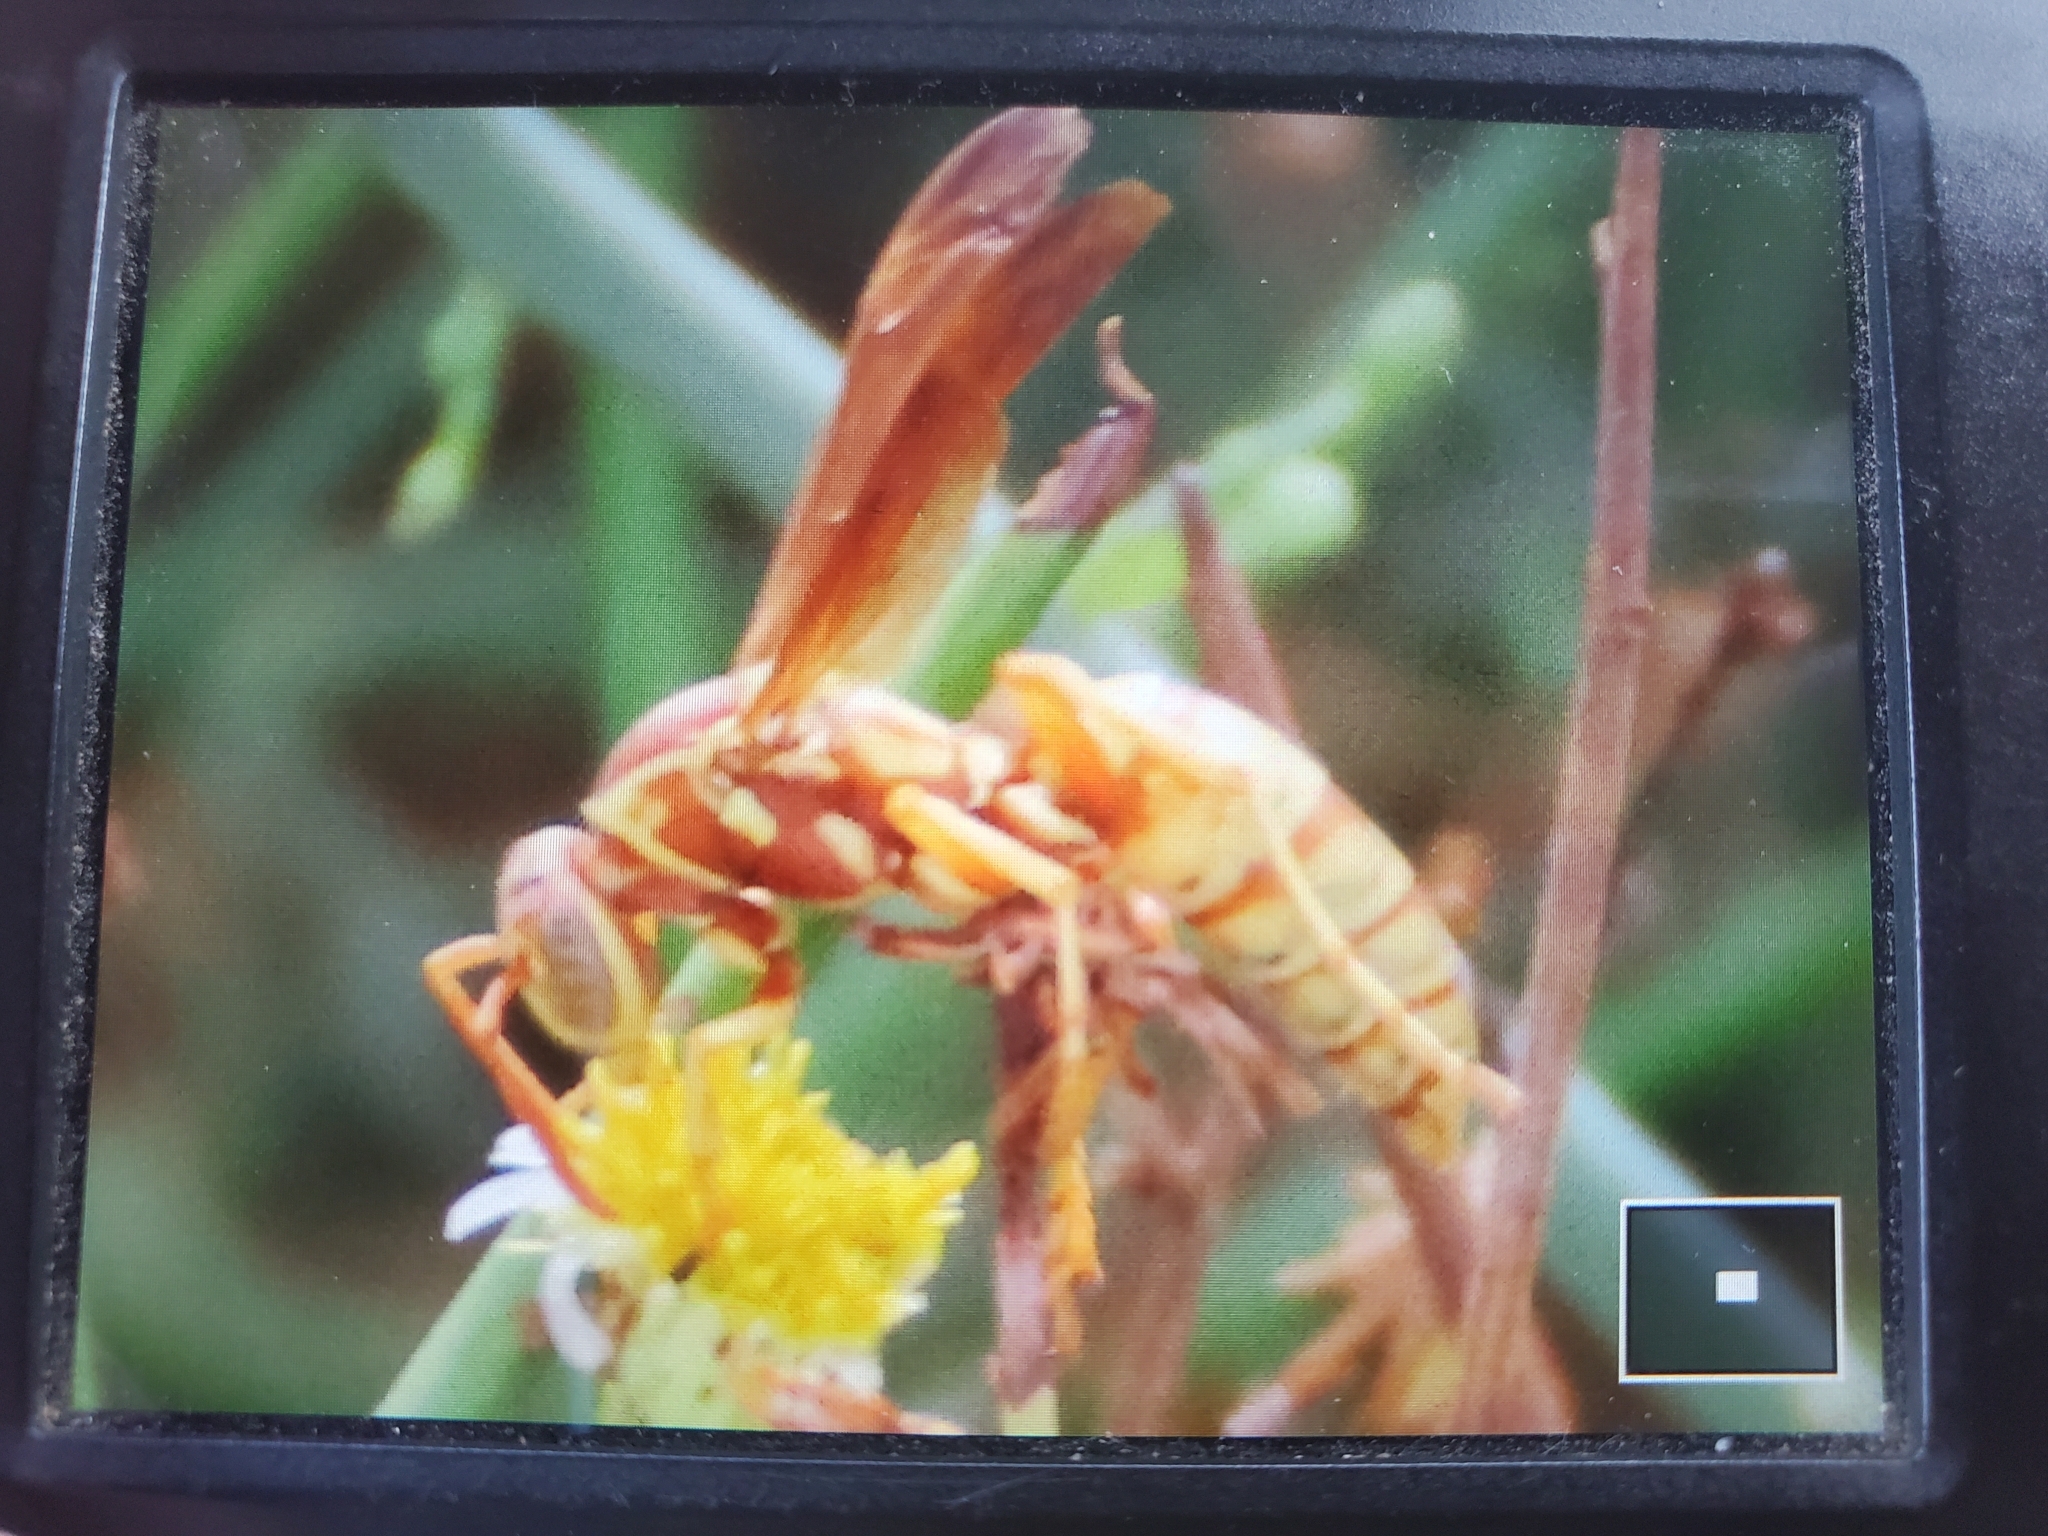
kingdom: Animalia
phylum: Arthropoda
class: Insecta
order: Hymenoptera
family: Eumenidae
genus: Polistes
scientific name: Polistes aurifer
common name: Paper wasp
